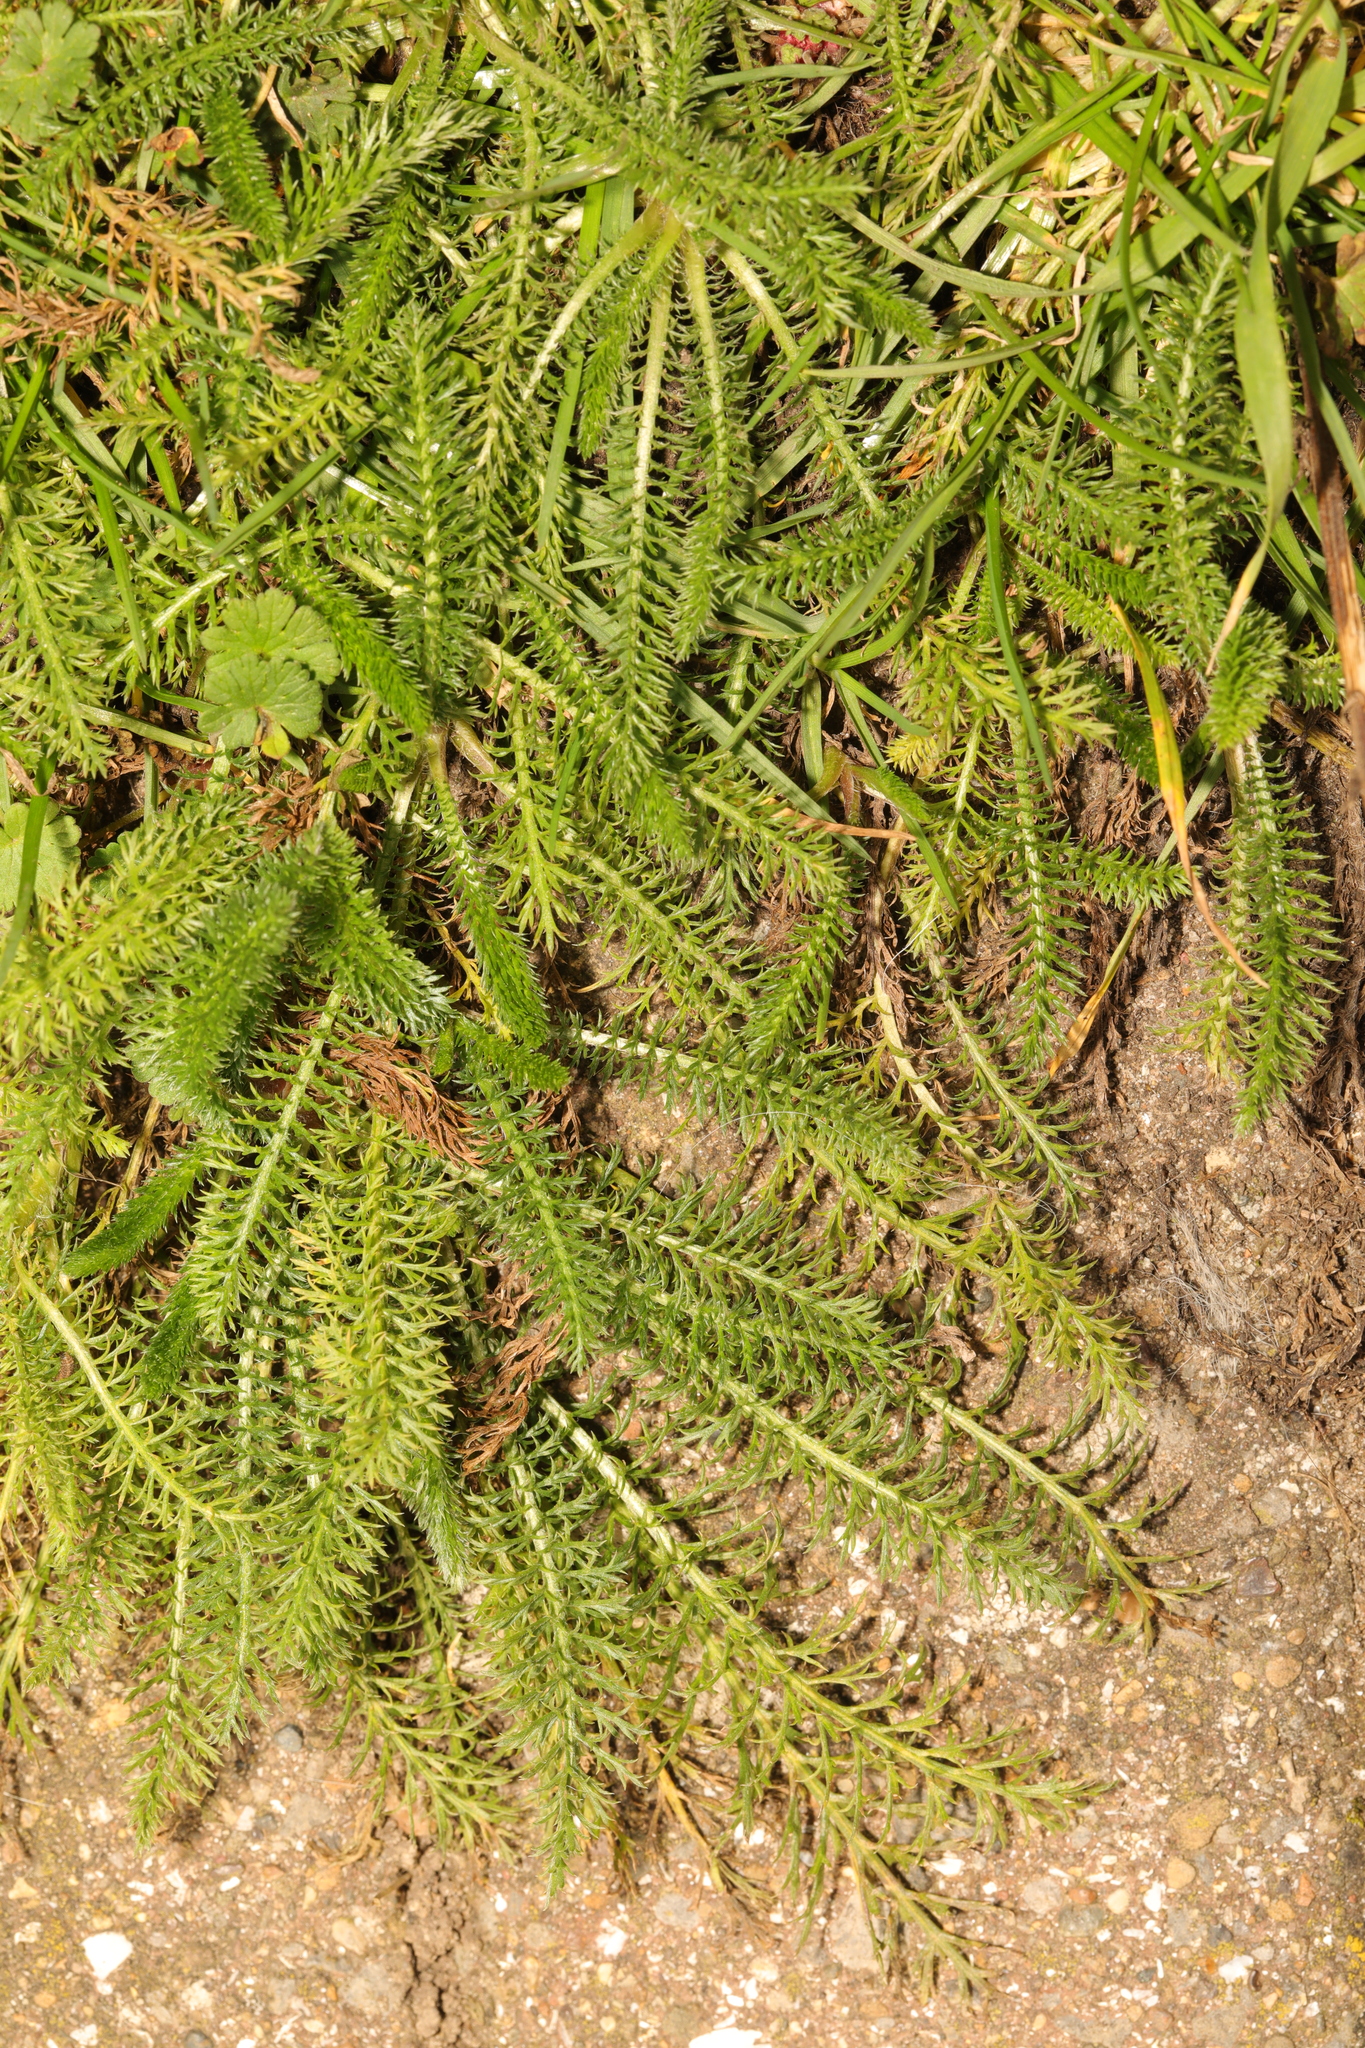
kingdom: Plantae
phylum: Tracheophyta
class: Magnoliopsida
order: Asterales
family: Asteraceae
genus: Achillea
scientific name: Achillea millefolium
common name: Yarrow
